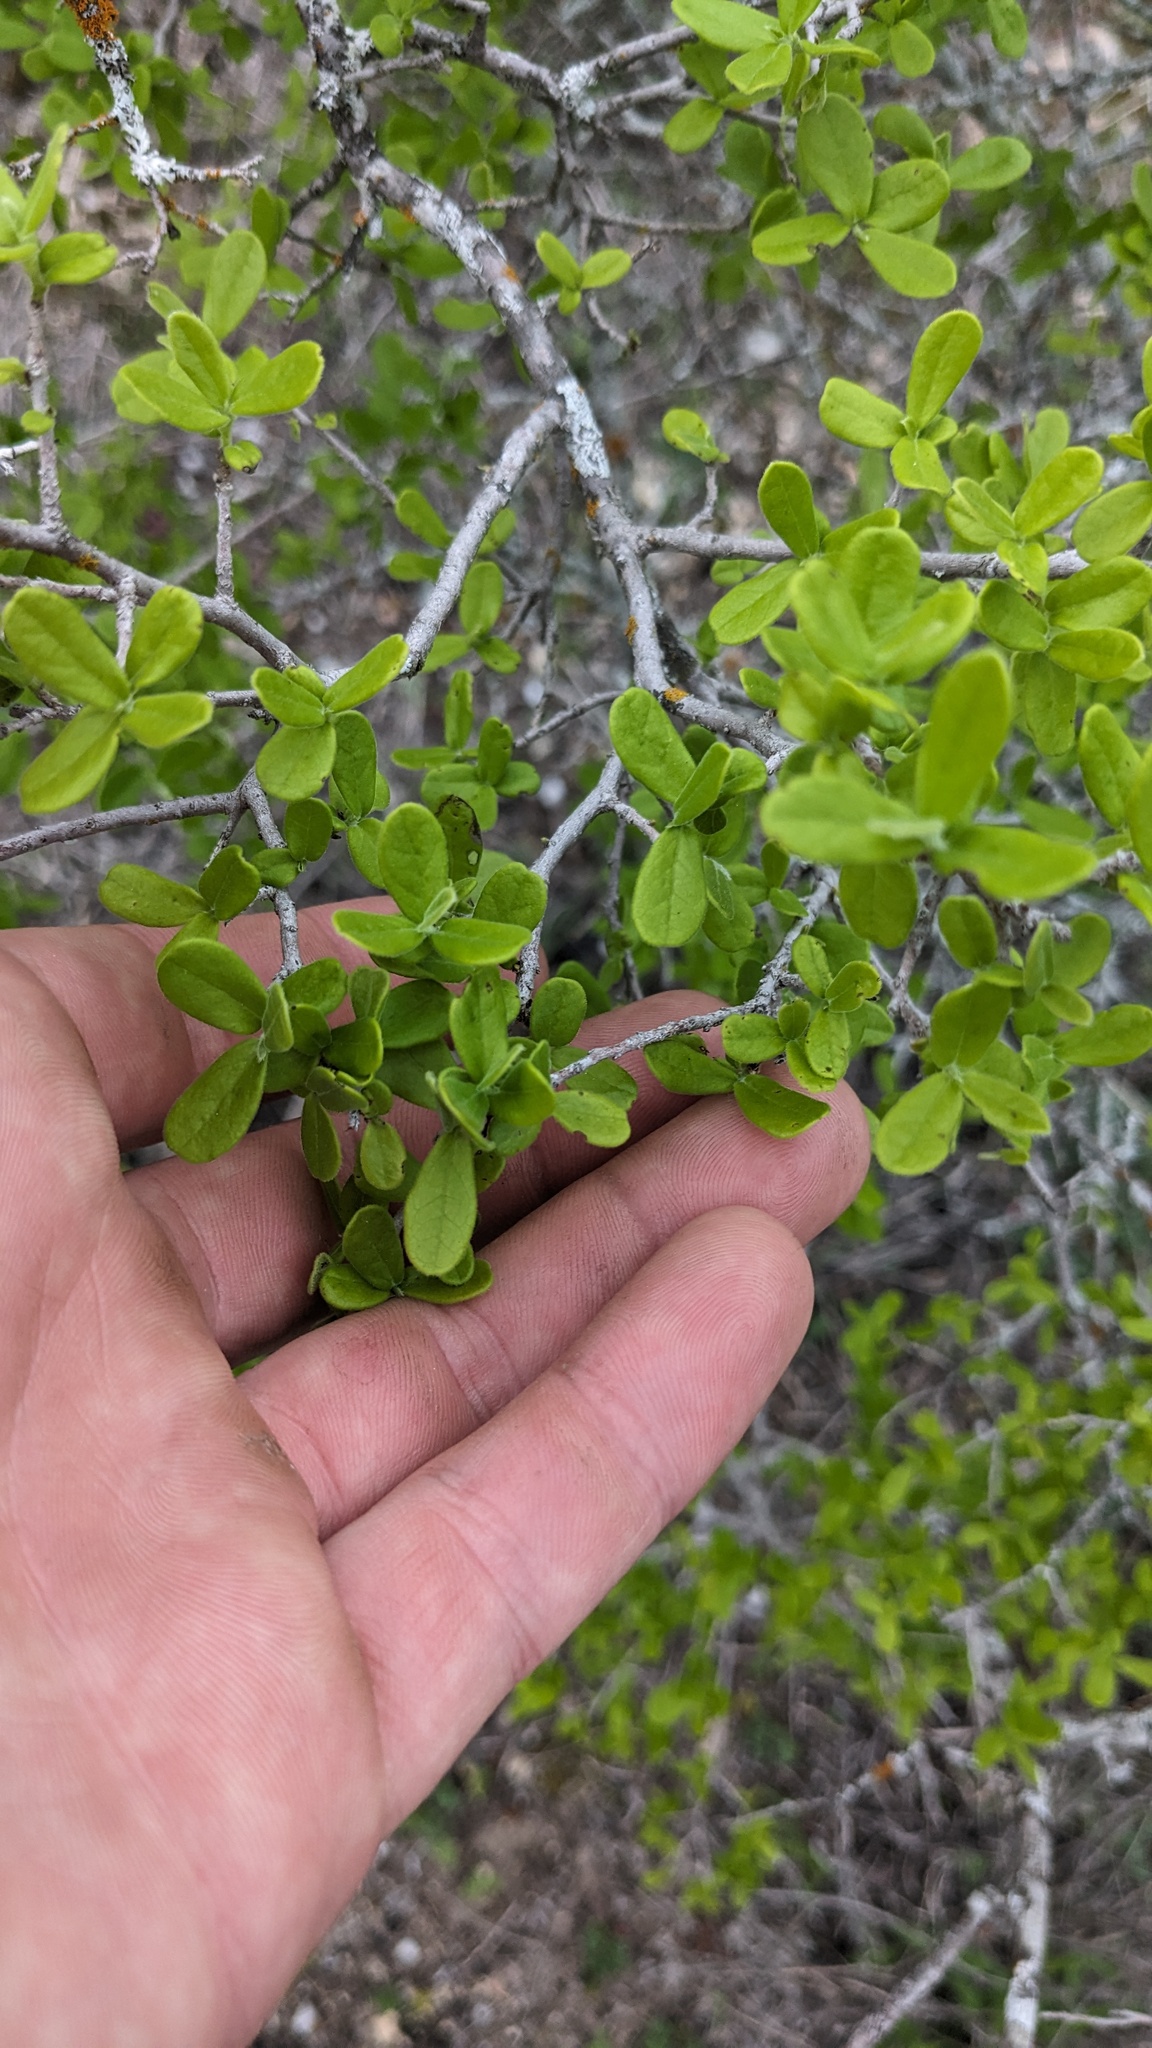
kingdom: Plantae
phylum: Tracheophyta
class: Magnoliopsida
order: Ericales
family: Ebenaceae
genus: Diospyros
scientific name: Diospyros texana
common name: Texas persimmon
